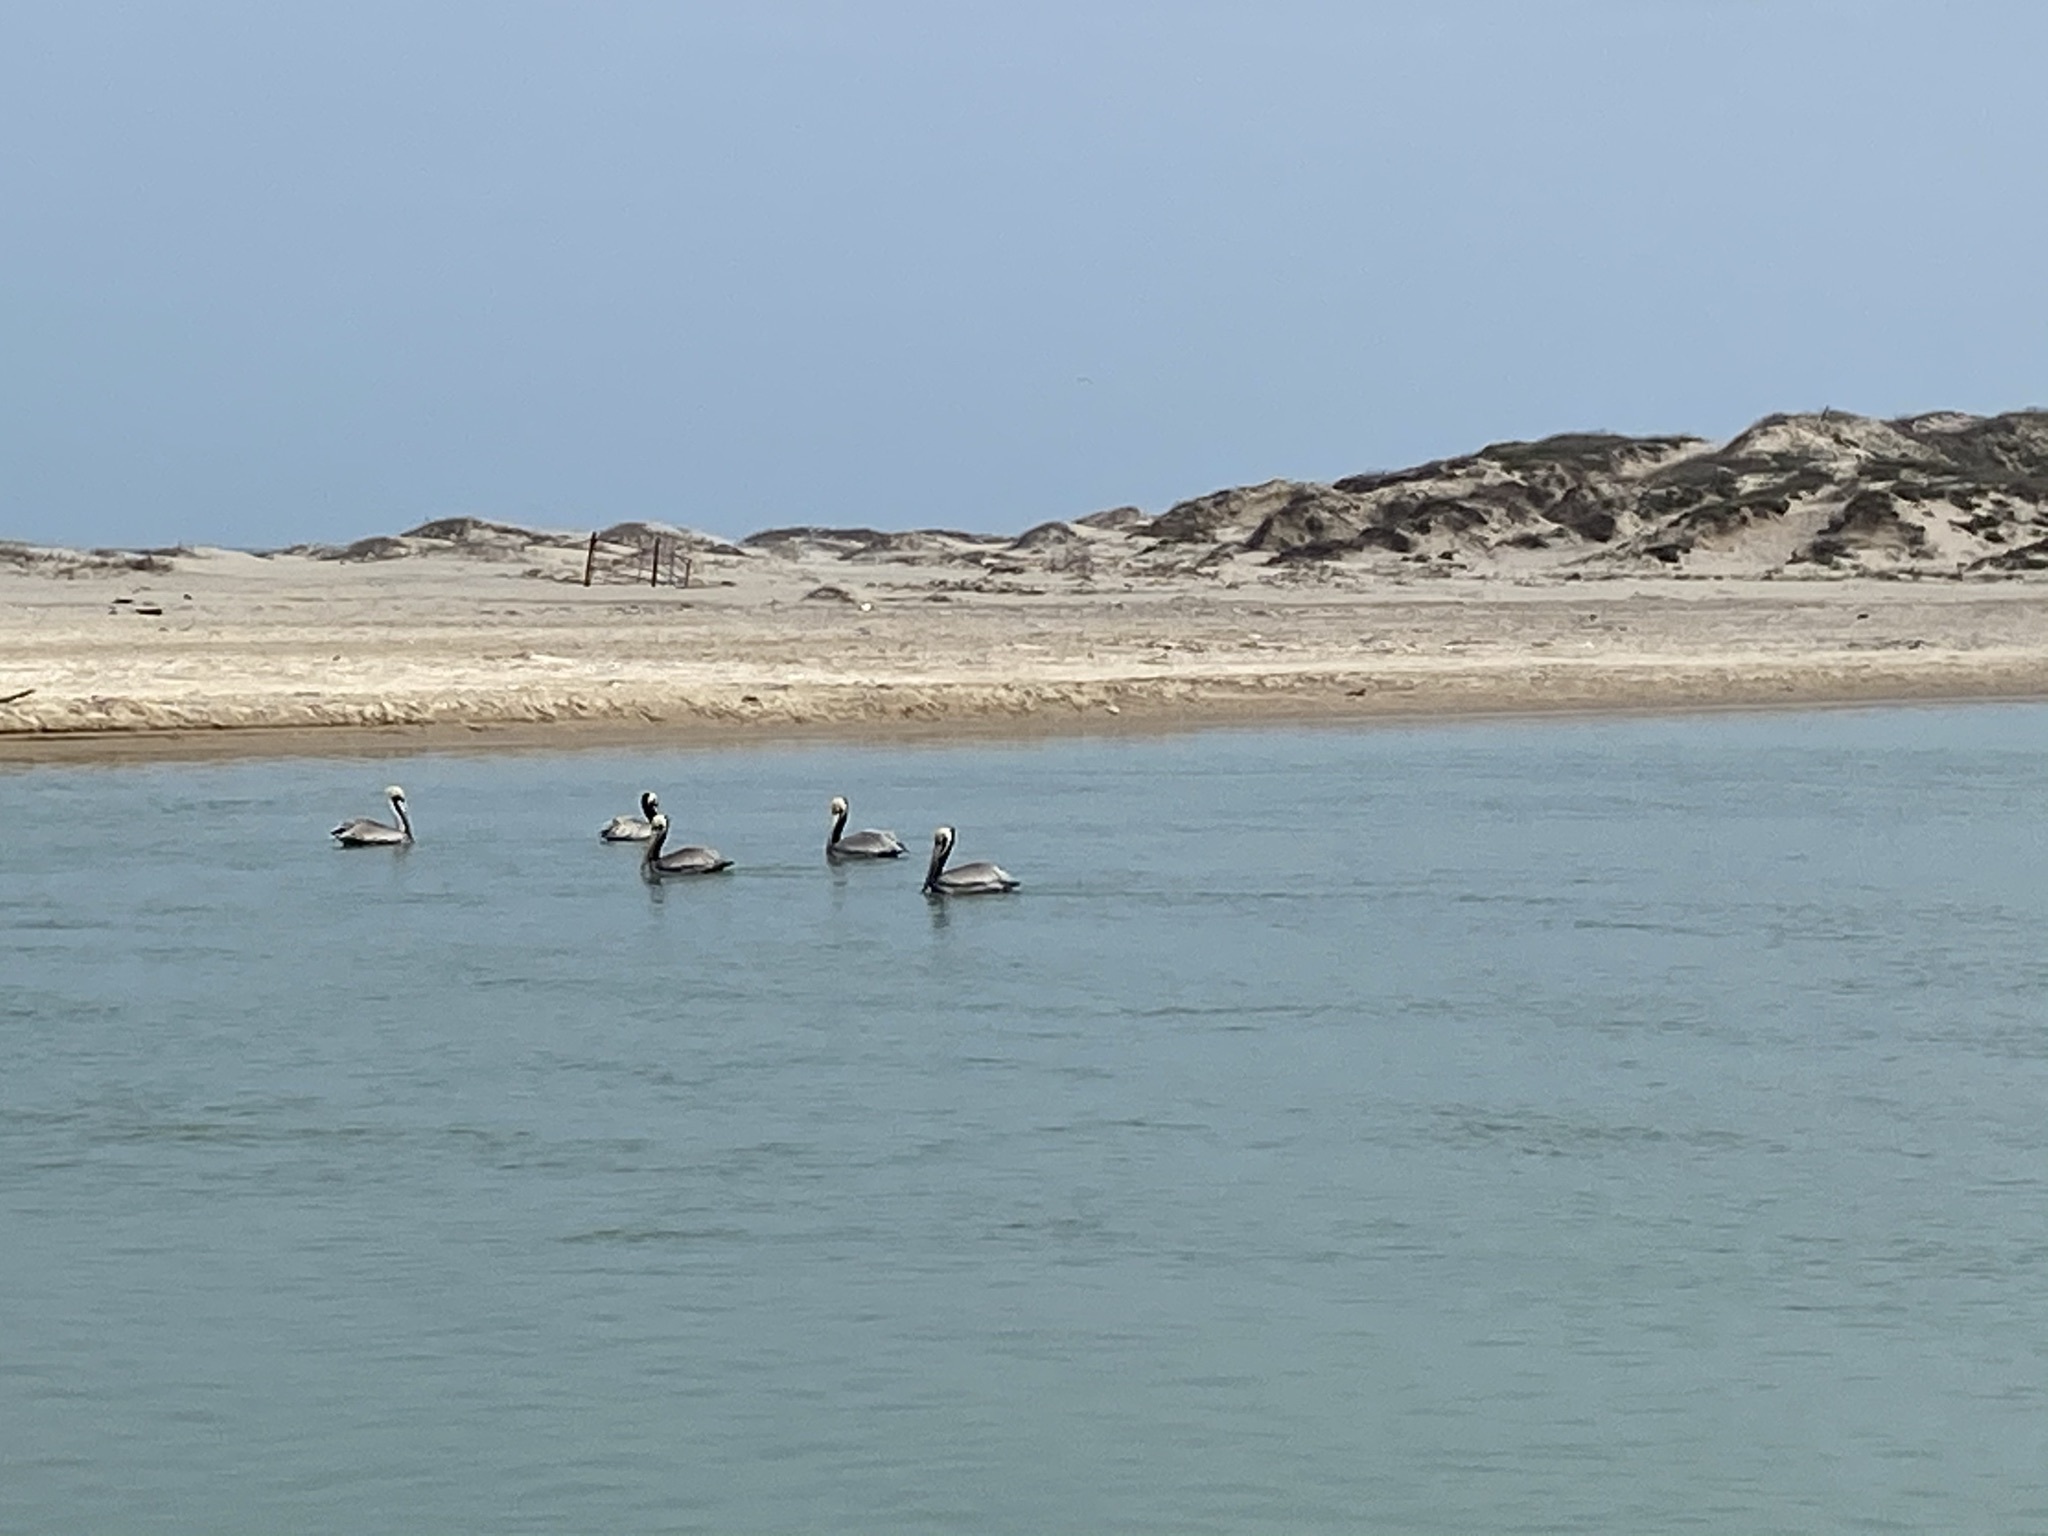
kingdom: Animalia
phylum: Chordata
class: Aves
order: Pelecaniformes
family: Pelecanidae
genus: Pelecanus
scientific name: Pelecanus occidentalis
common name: Brown pelican
